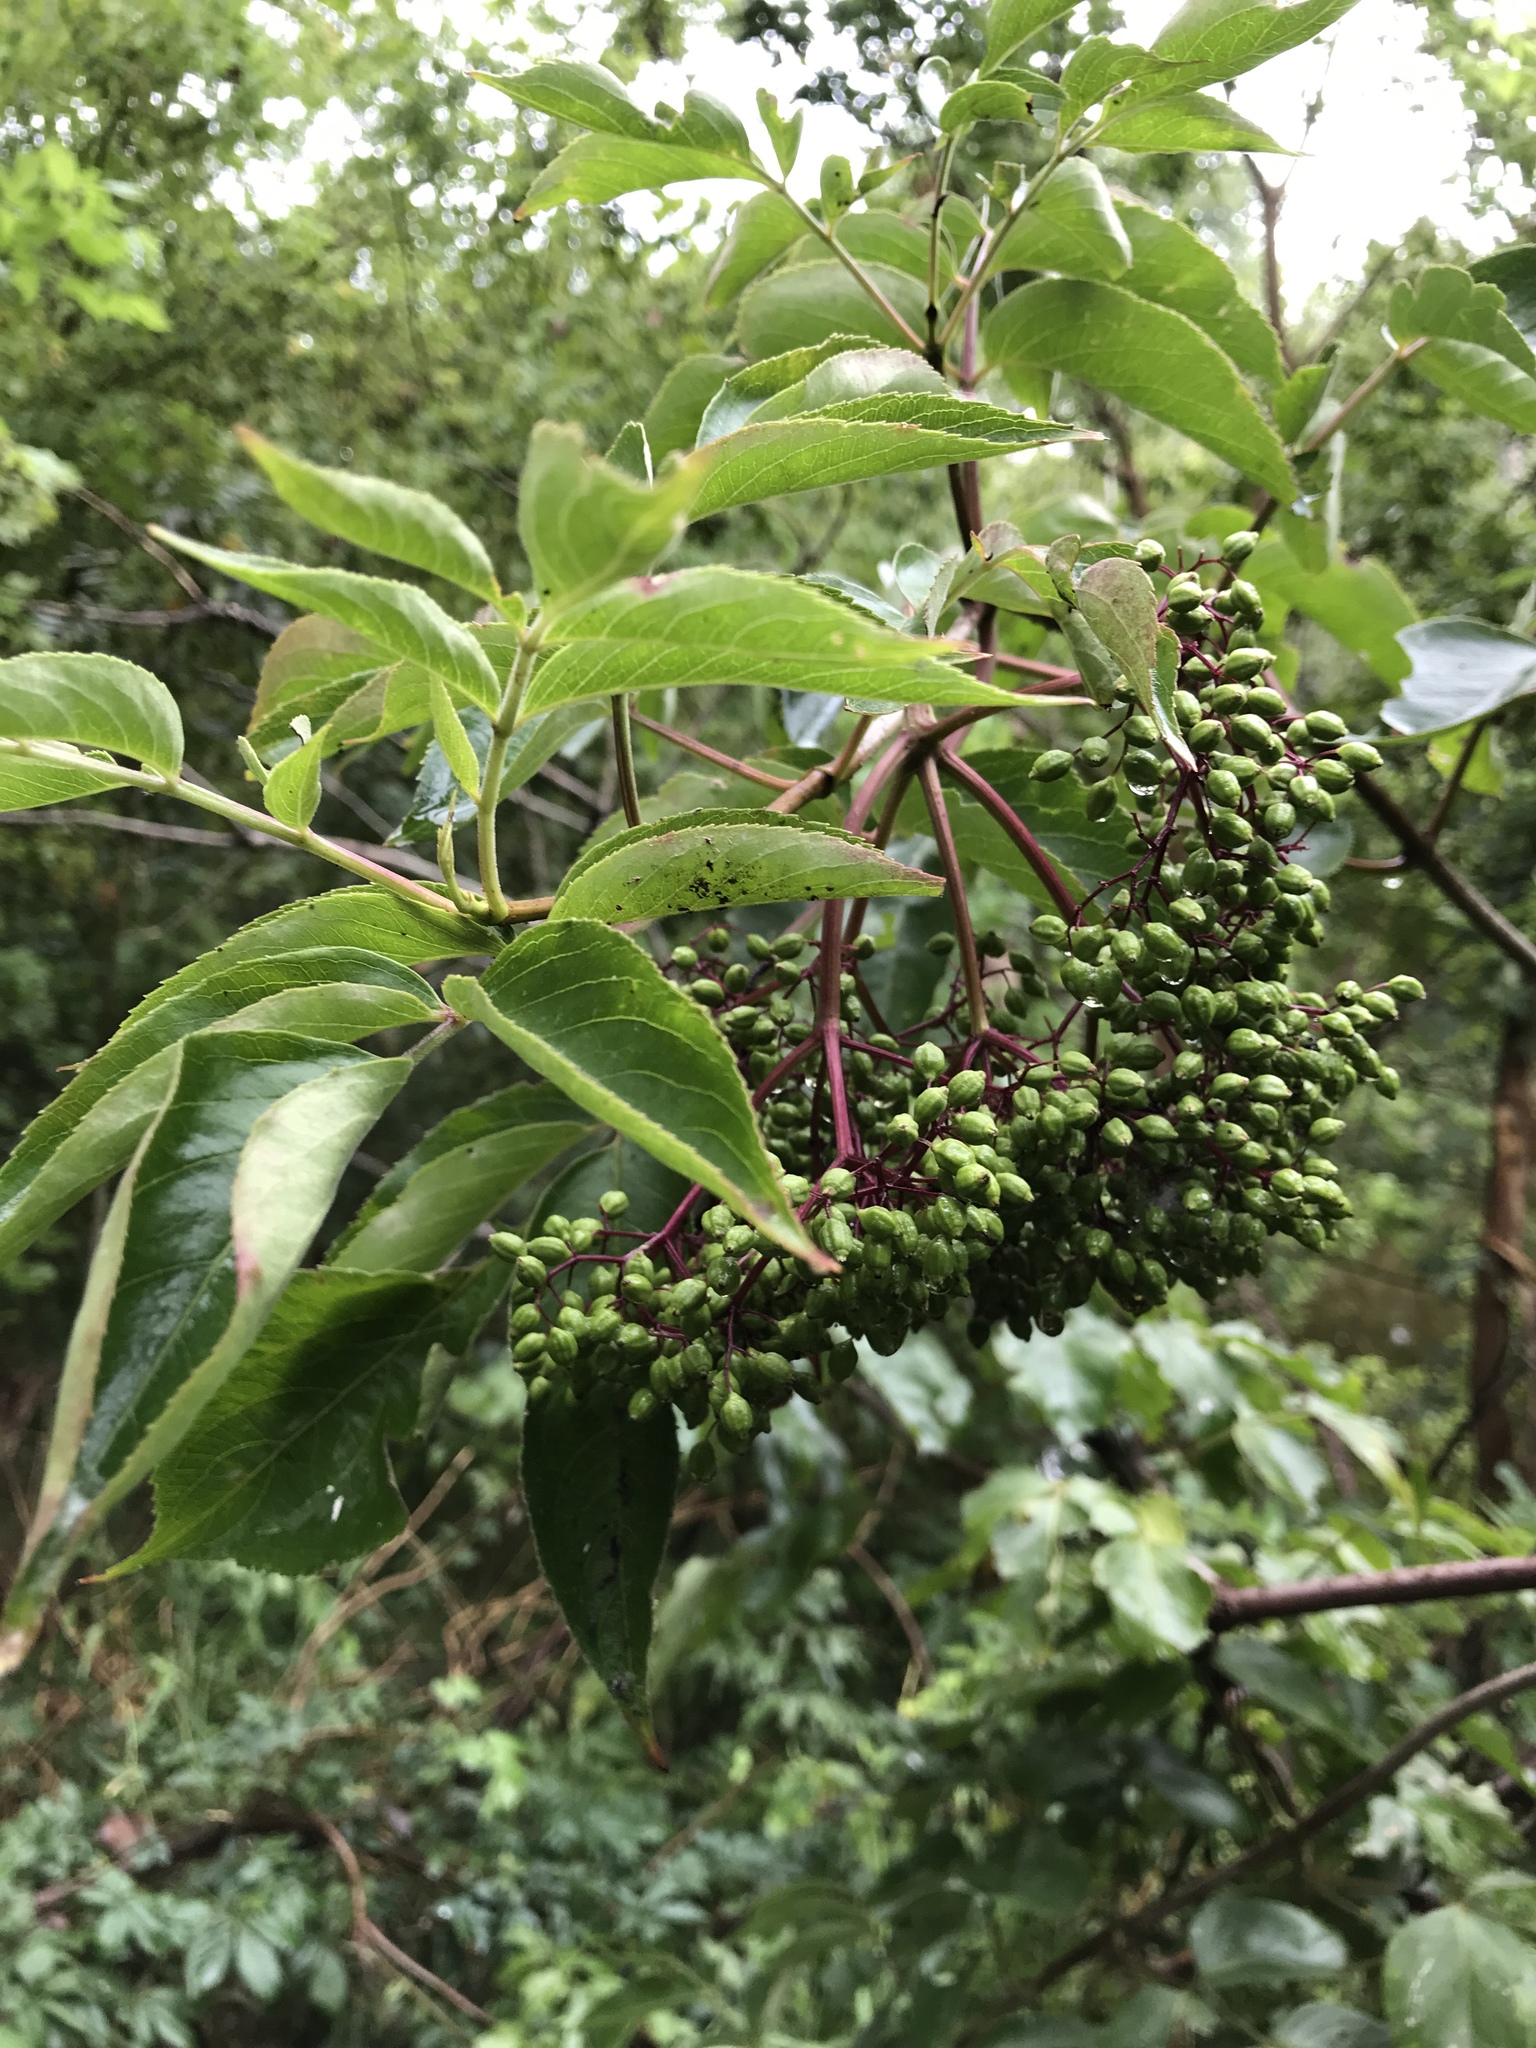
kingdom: Plantae
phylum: Tracheophyta
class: Magnoliopsida
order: Dipsacales
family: Viburnaceae
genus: Sambucus
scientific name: Sambucus canadensis
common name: American elder
